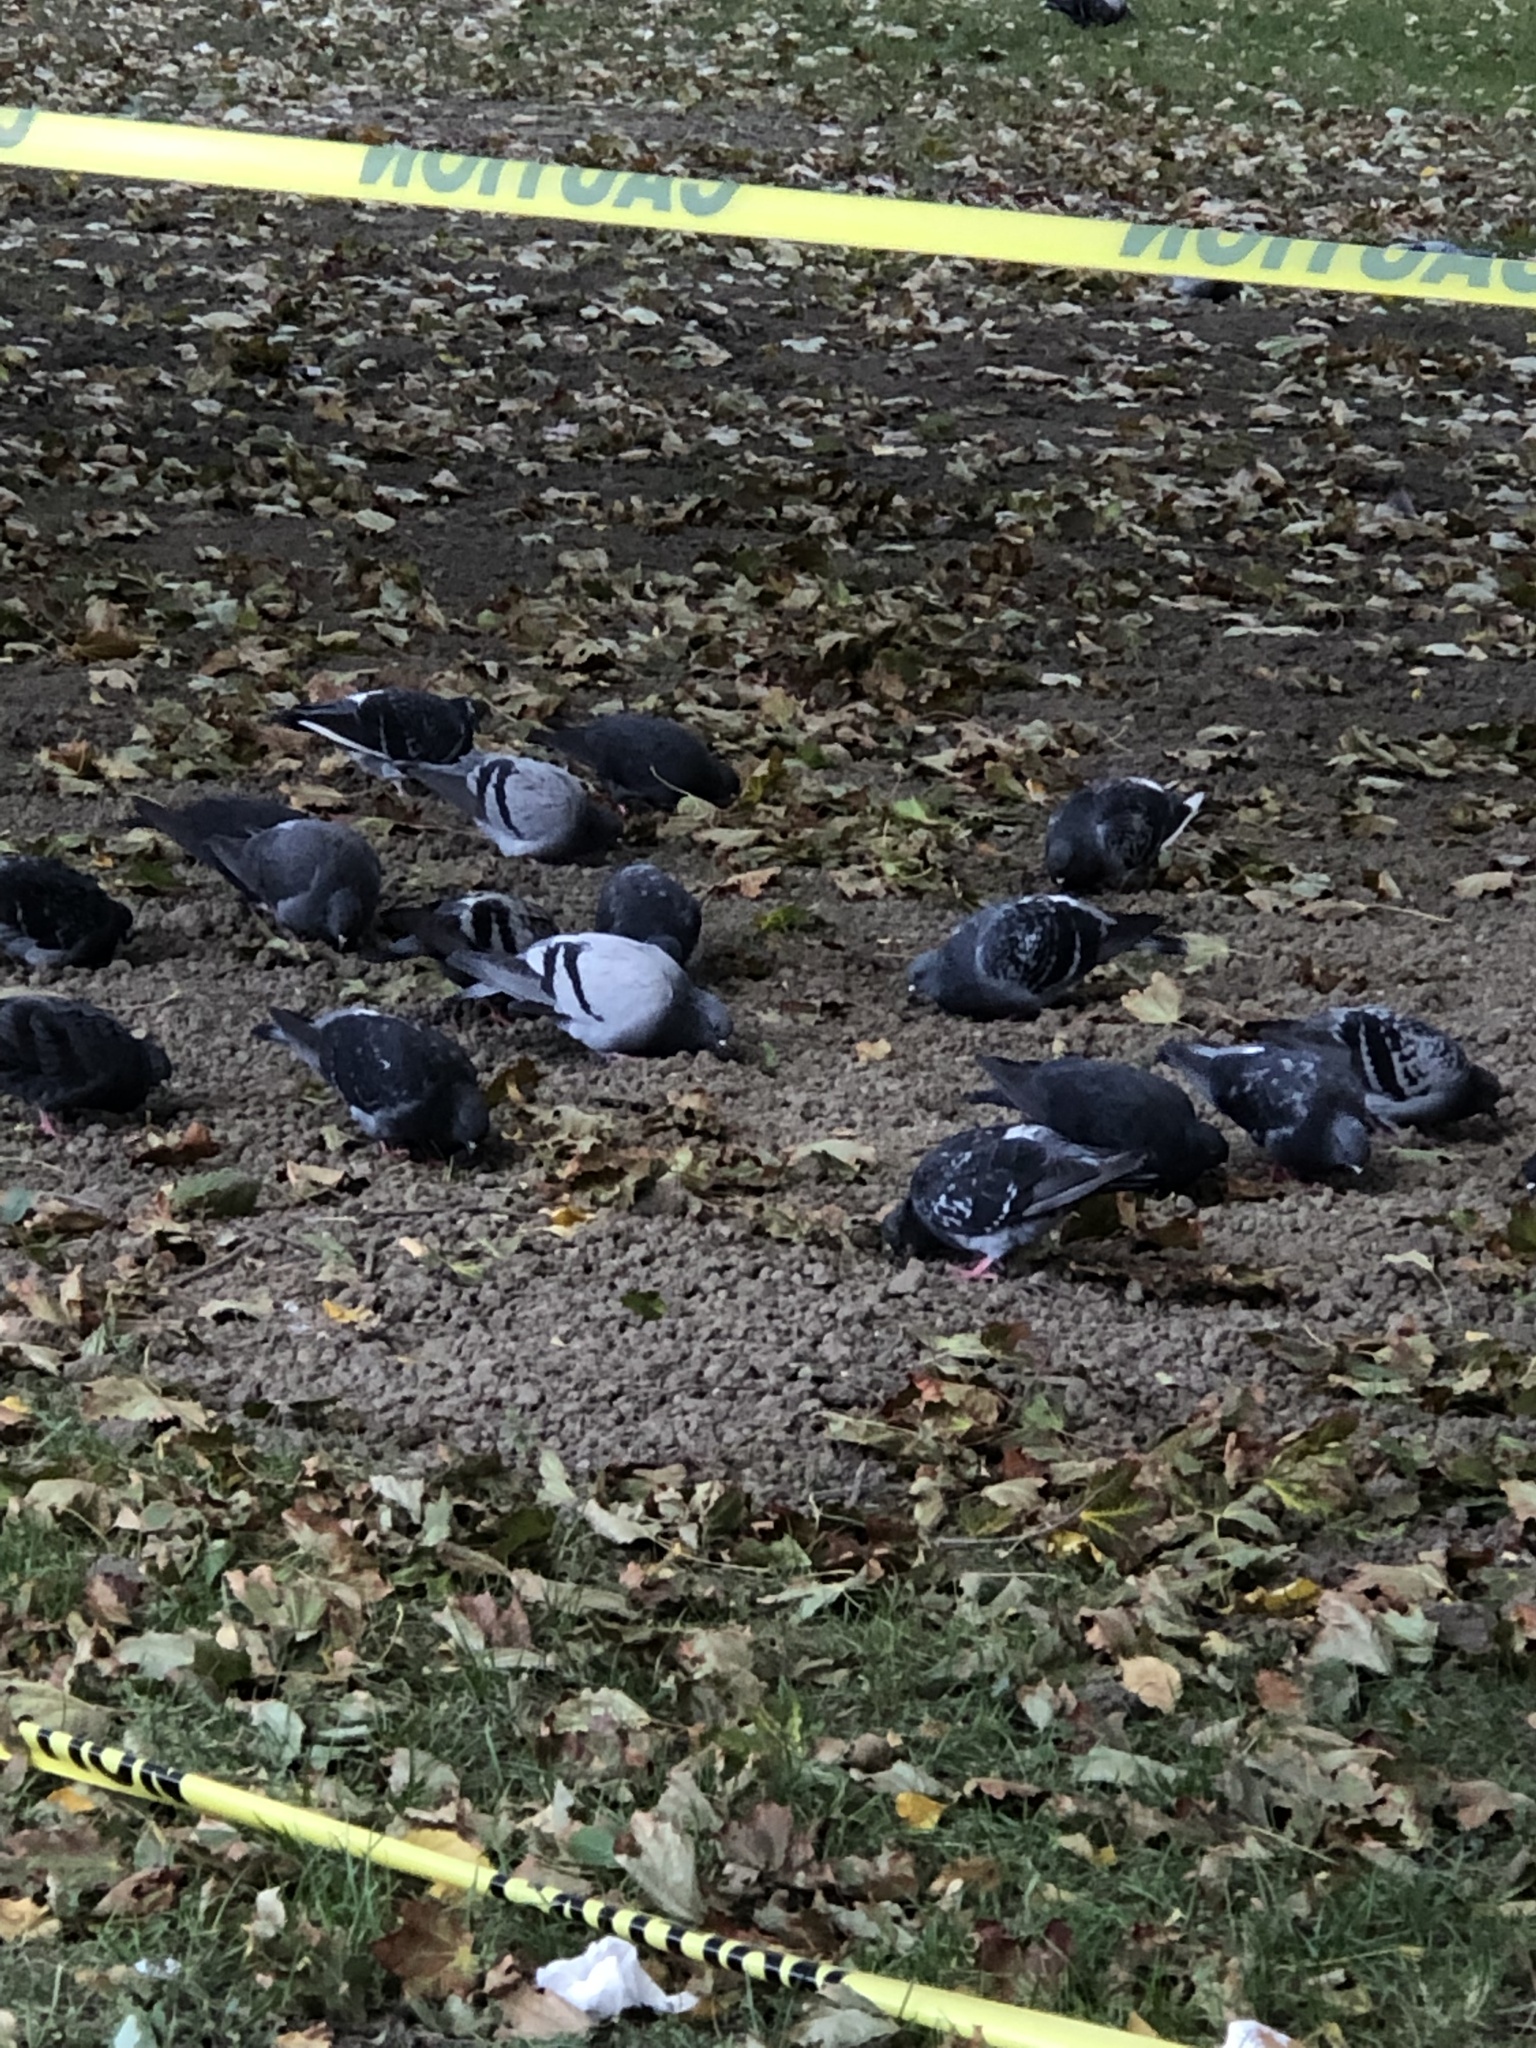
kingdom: Animalia
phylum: Chordata
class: Aves
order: Columbiformes
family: Columbidae
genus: Columba
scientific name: Columba livia
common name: Rock pigeon
